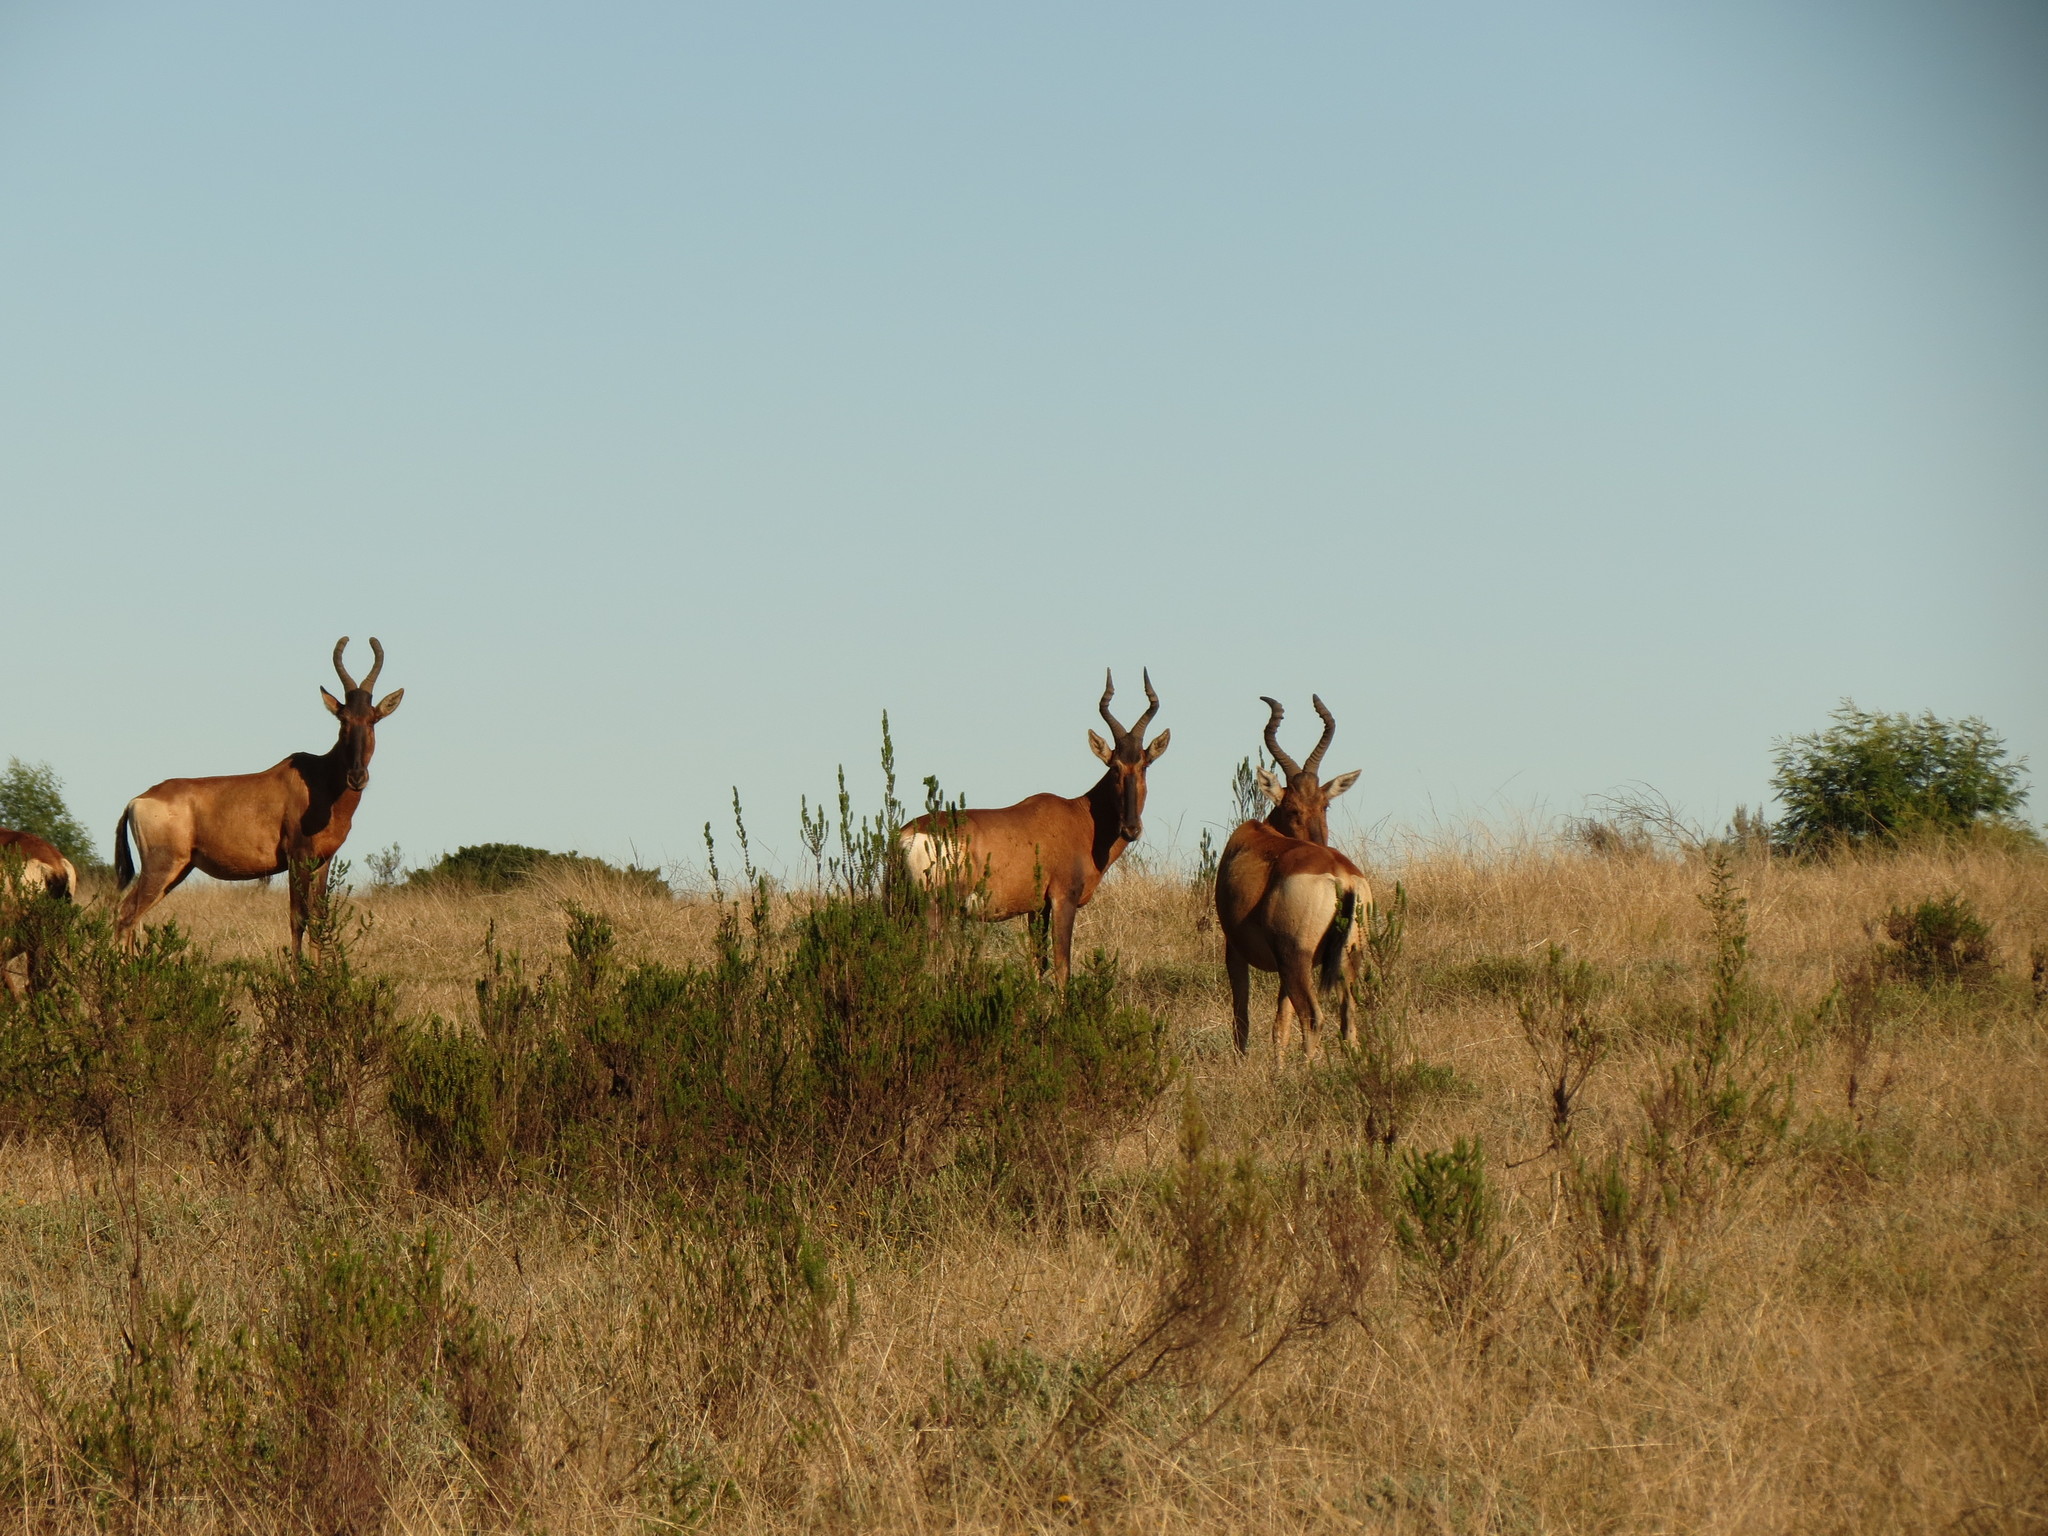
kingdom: Animalia
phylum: Chordata
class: Mammalia
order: Artiodactyla
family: Bovidae
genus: Alcelaphus
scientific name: Alcelaphus caama
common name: Red hartebeest
